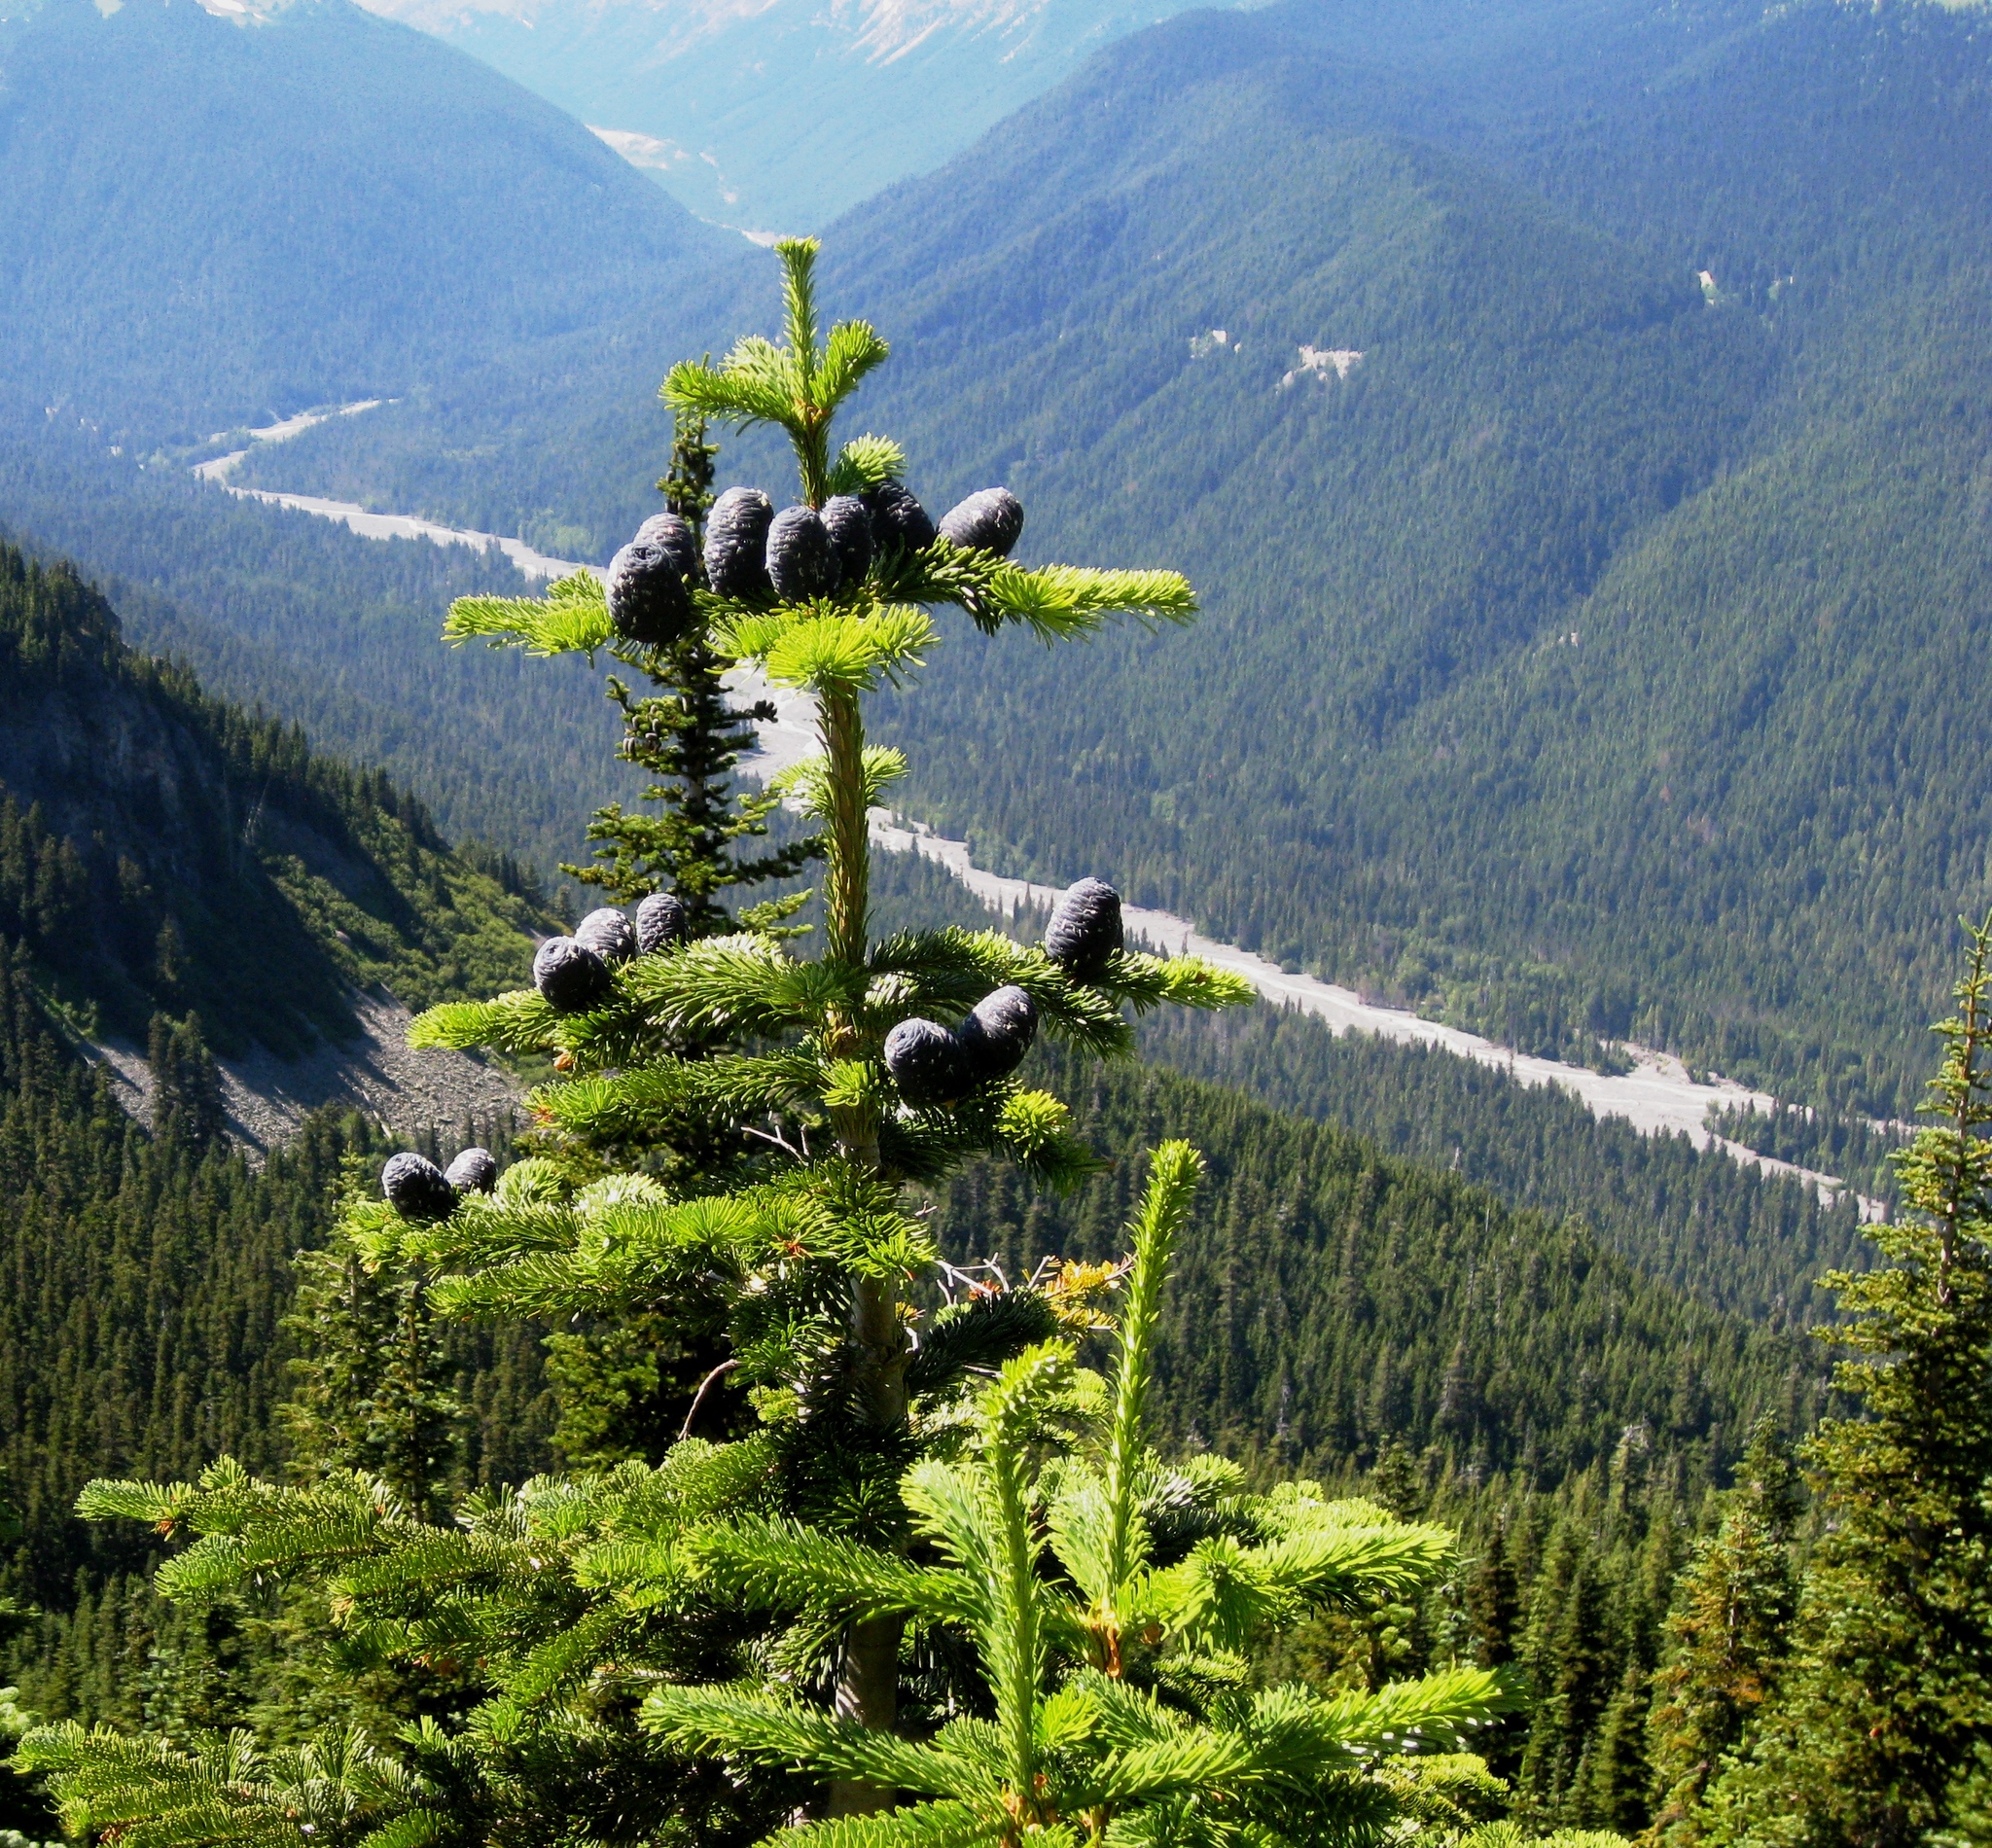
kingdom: Plantae
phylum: Tracheophyta
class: Pinopsida
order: Pinales
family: Pinaceae
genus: Abies
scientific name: Abies amabilis
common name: Pacific silver fir
